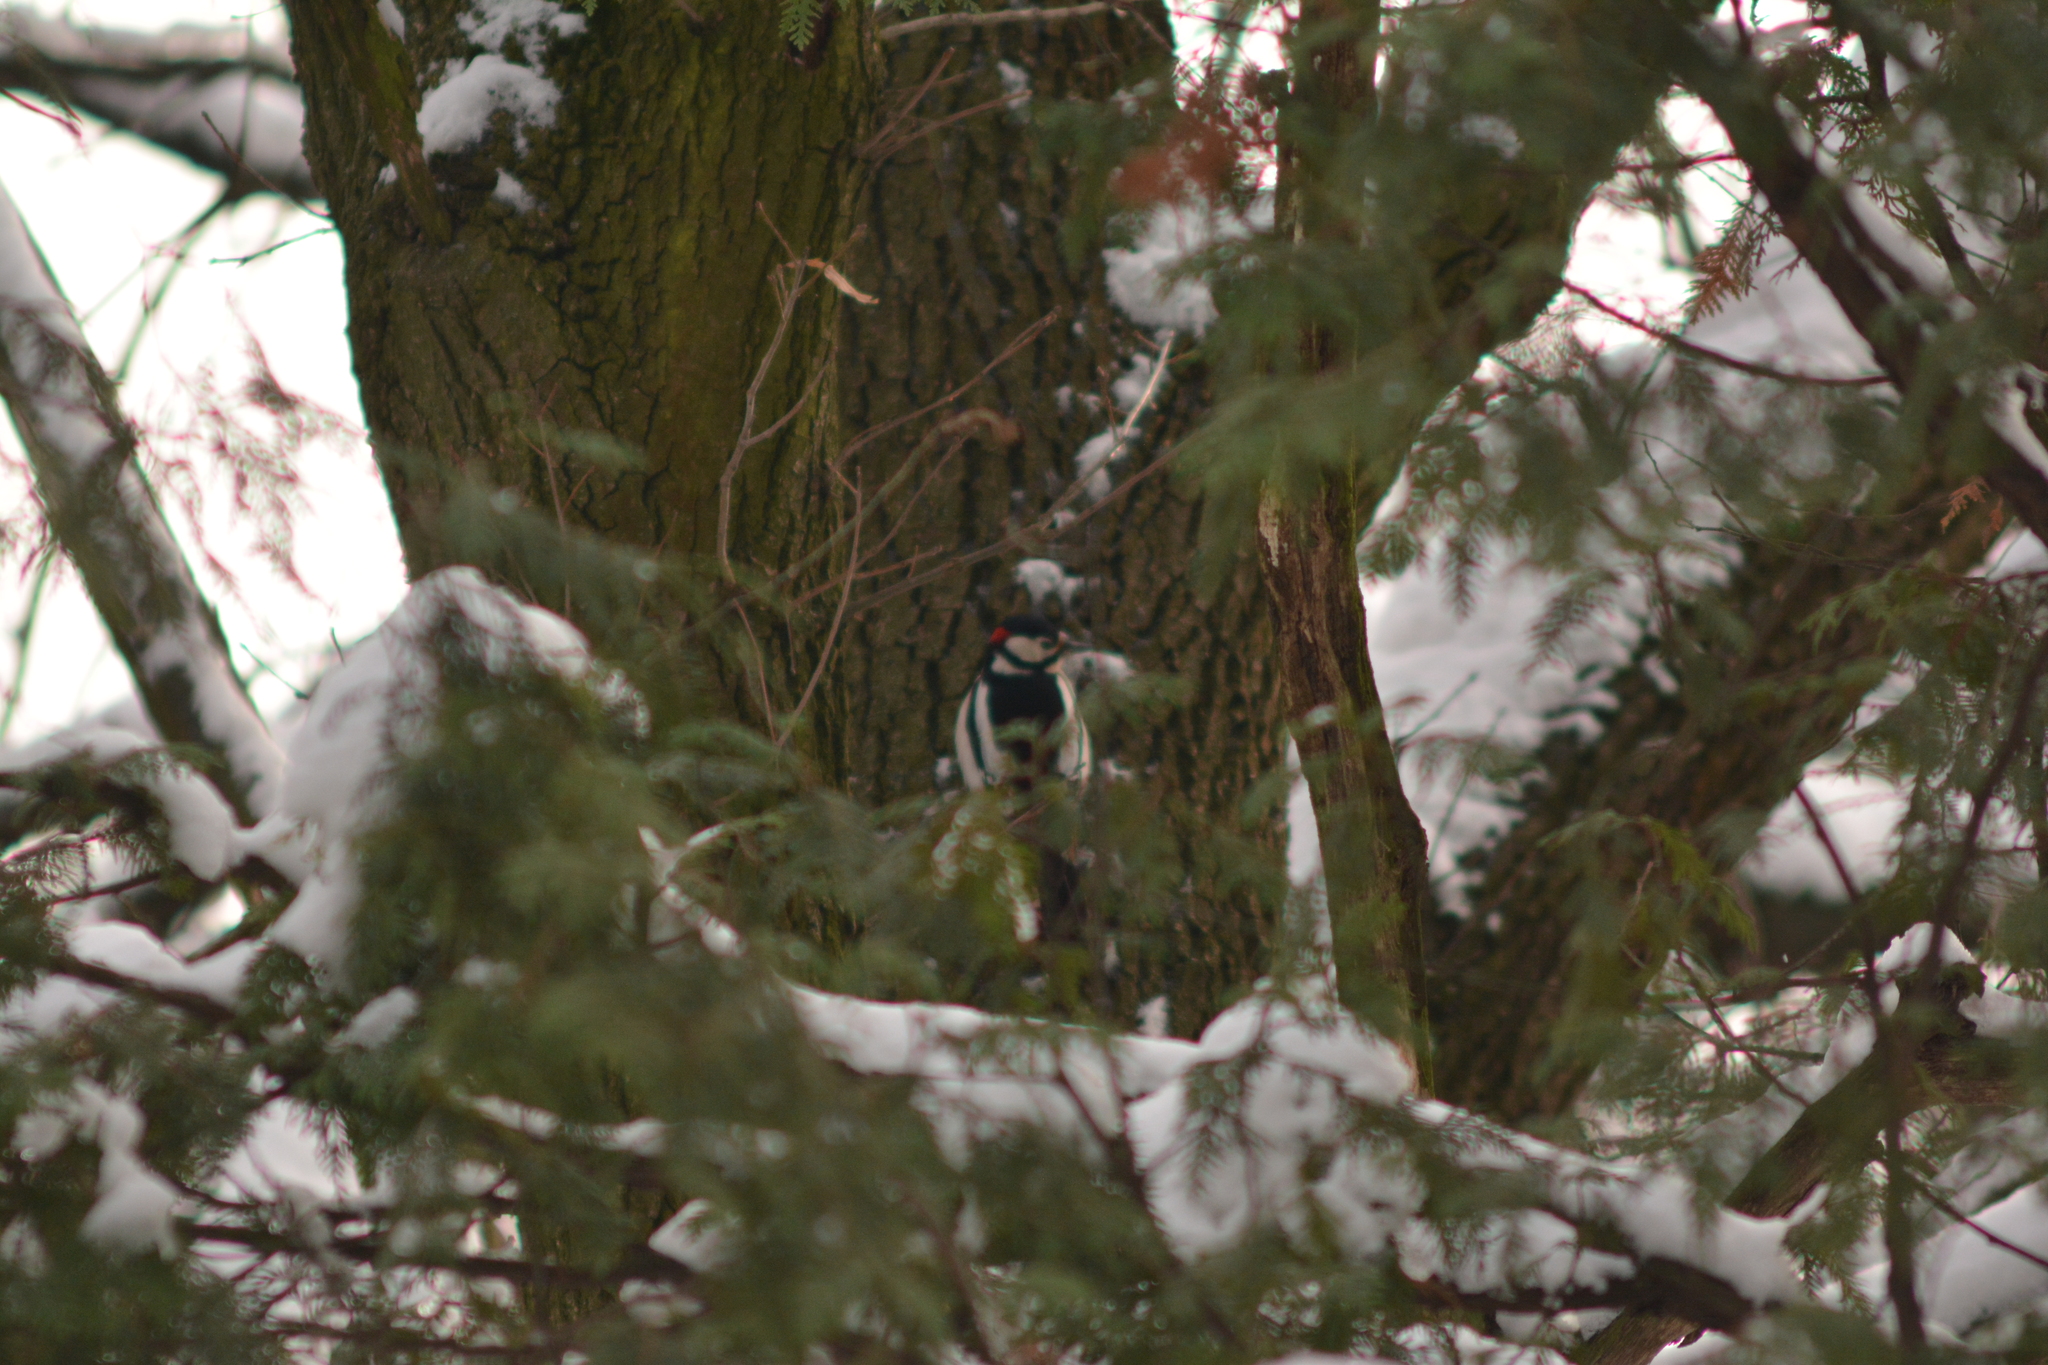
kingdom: Animalia
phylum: Chordata
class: Aves
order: Piciformes
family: Picidae
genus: Dendrocopos
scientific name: Dendrocopos major
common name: Great spotted woodpecker
